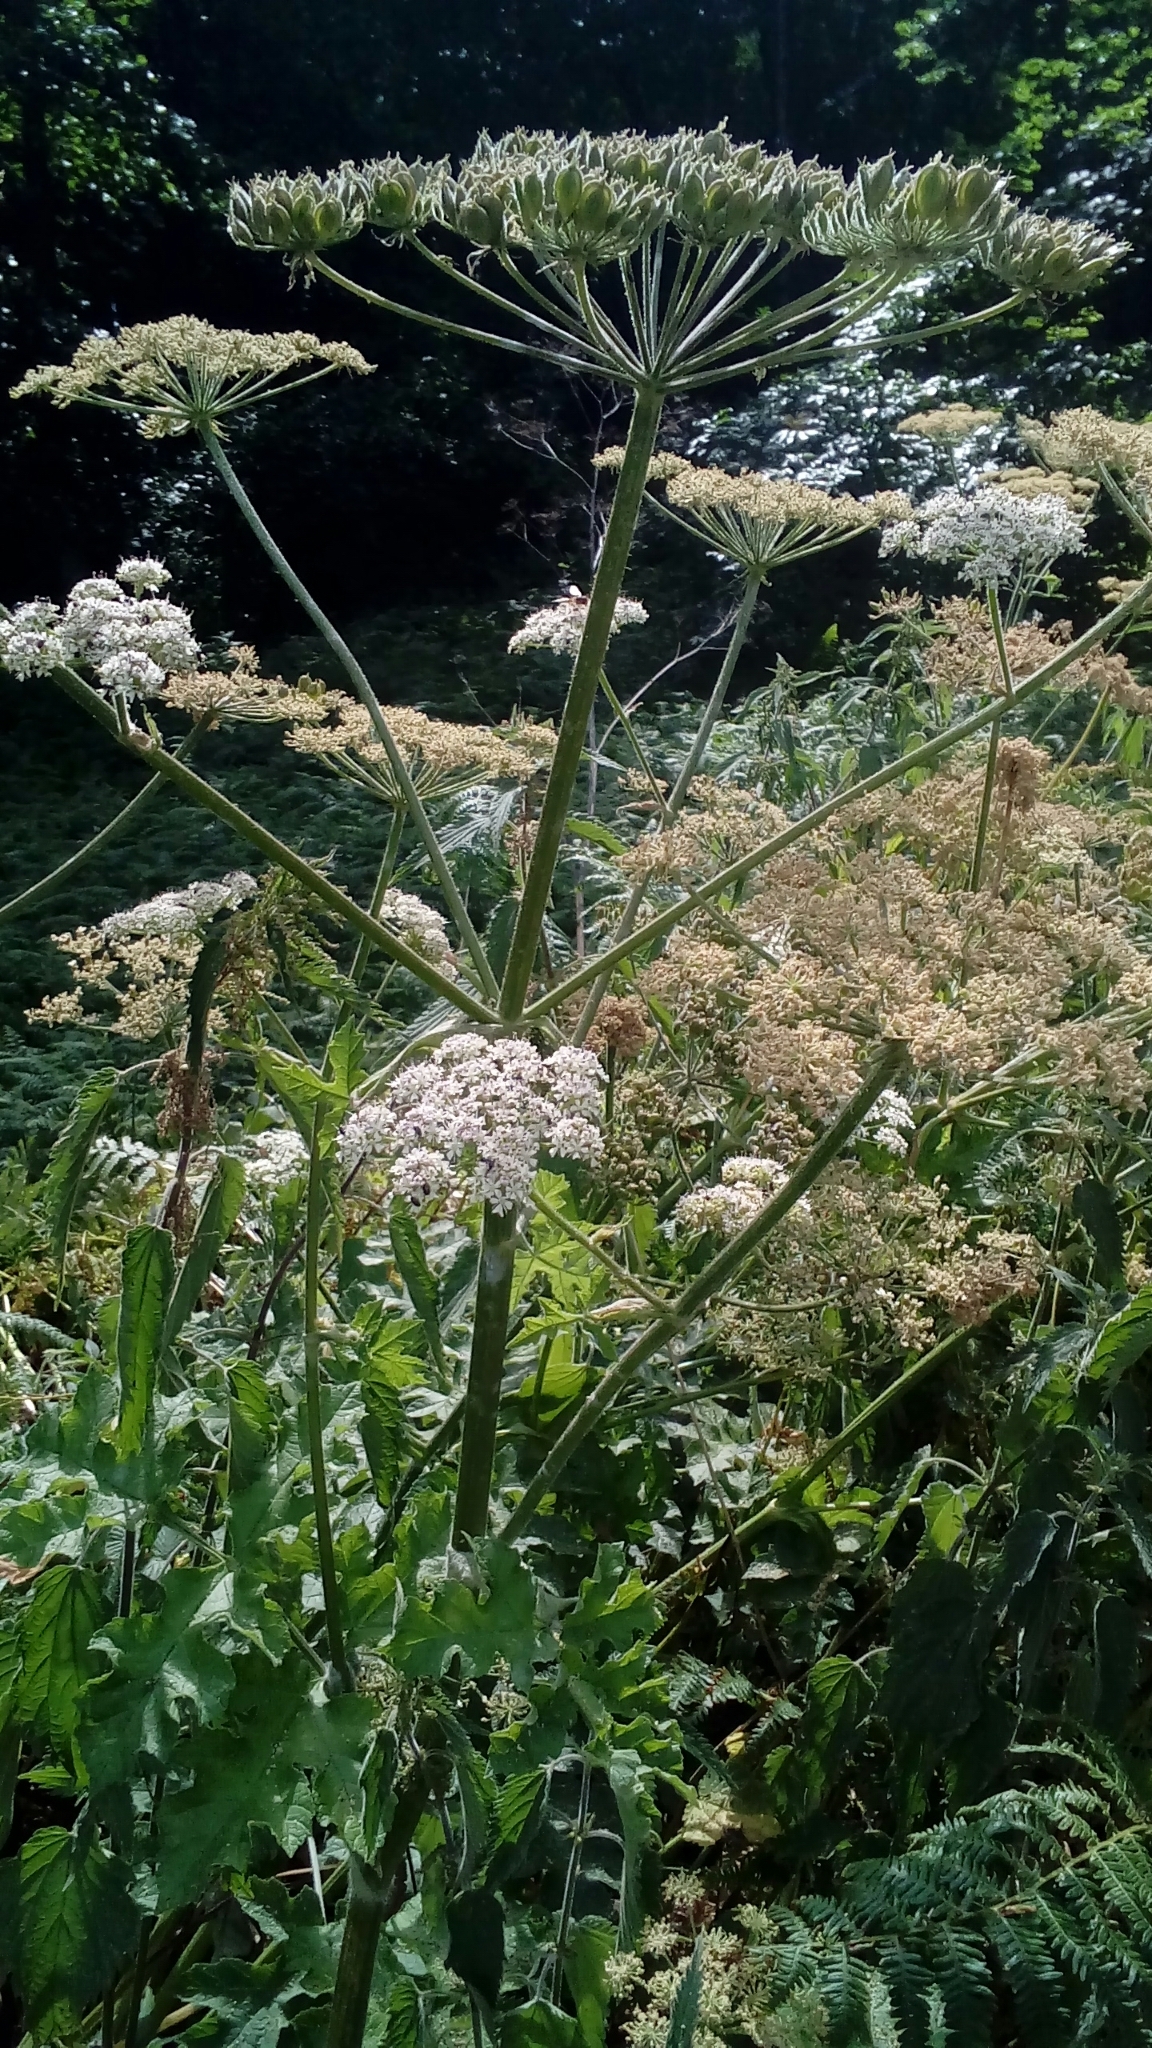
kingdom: Plantae
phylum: Tracheophyta
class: Magnoliopsida
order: Apiales
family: Apiaceae
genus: Heracleum
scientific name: Heracleum sphondylium
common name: Hogweed
